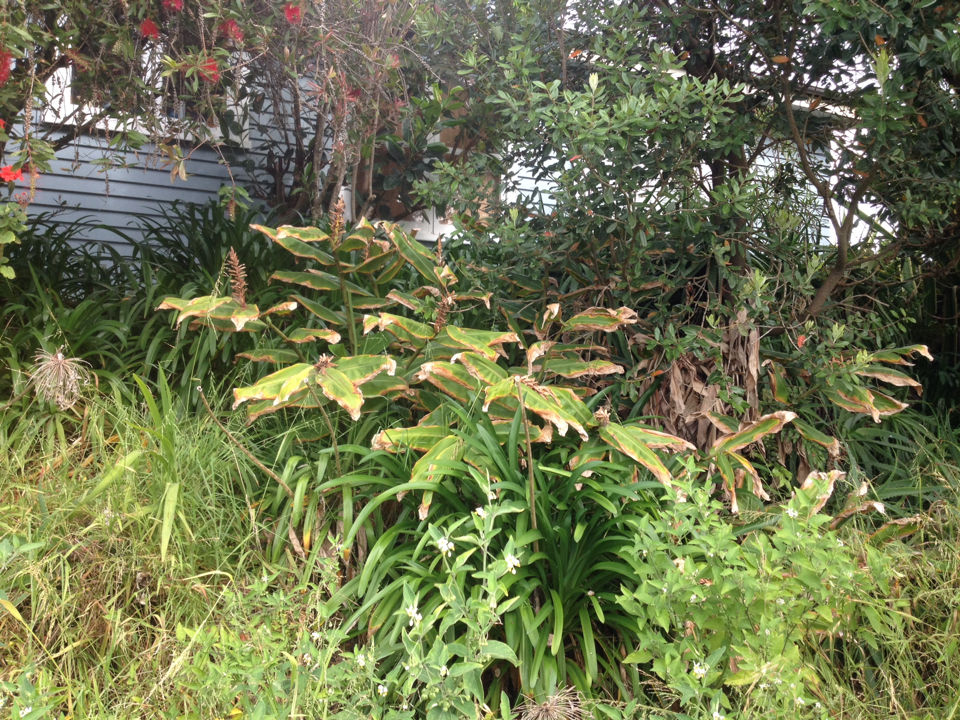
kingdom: Plantae
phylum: Tracheophyta
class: Liliopsida
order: Zingiberales
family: Zingiberaceae
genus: Hedychium
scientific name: Hedychium gardnerianum
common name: Himalayan ginger
